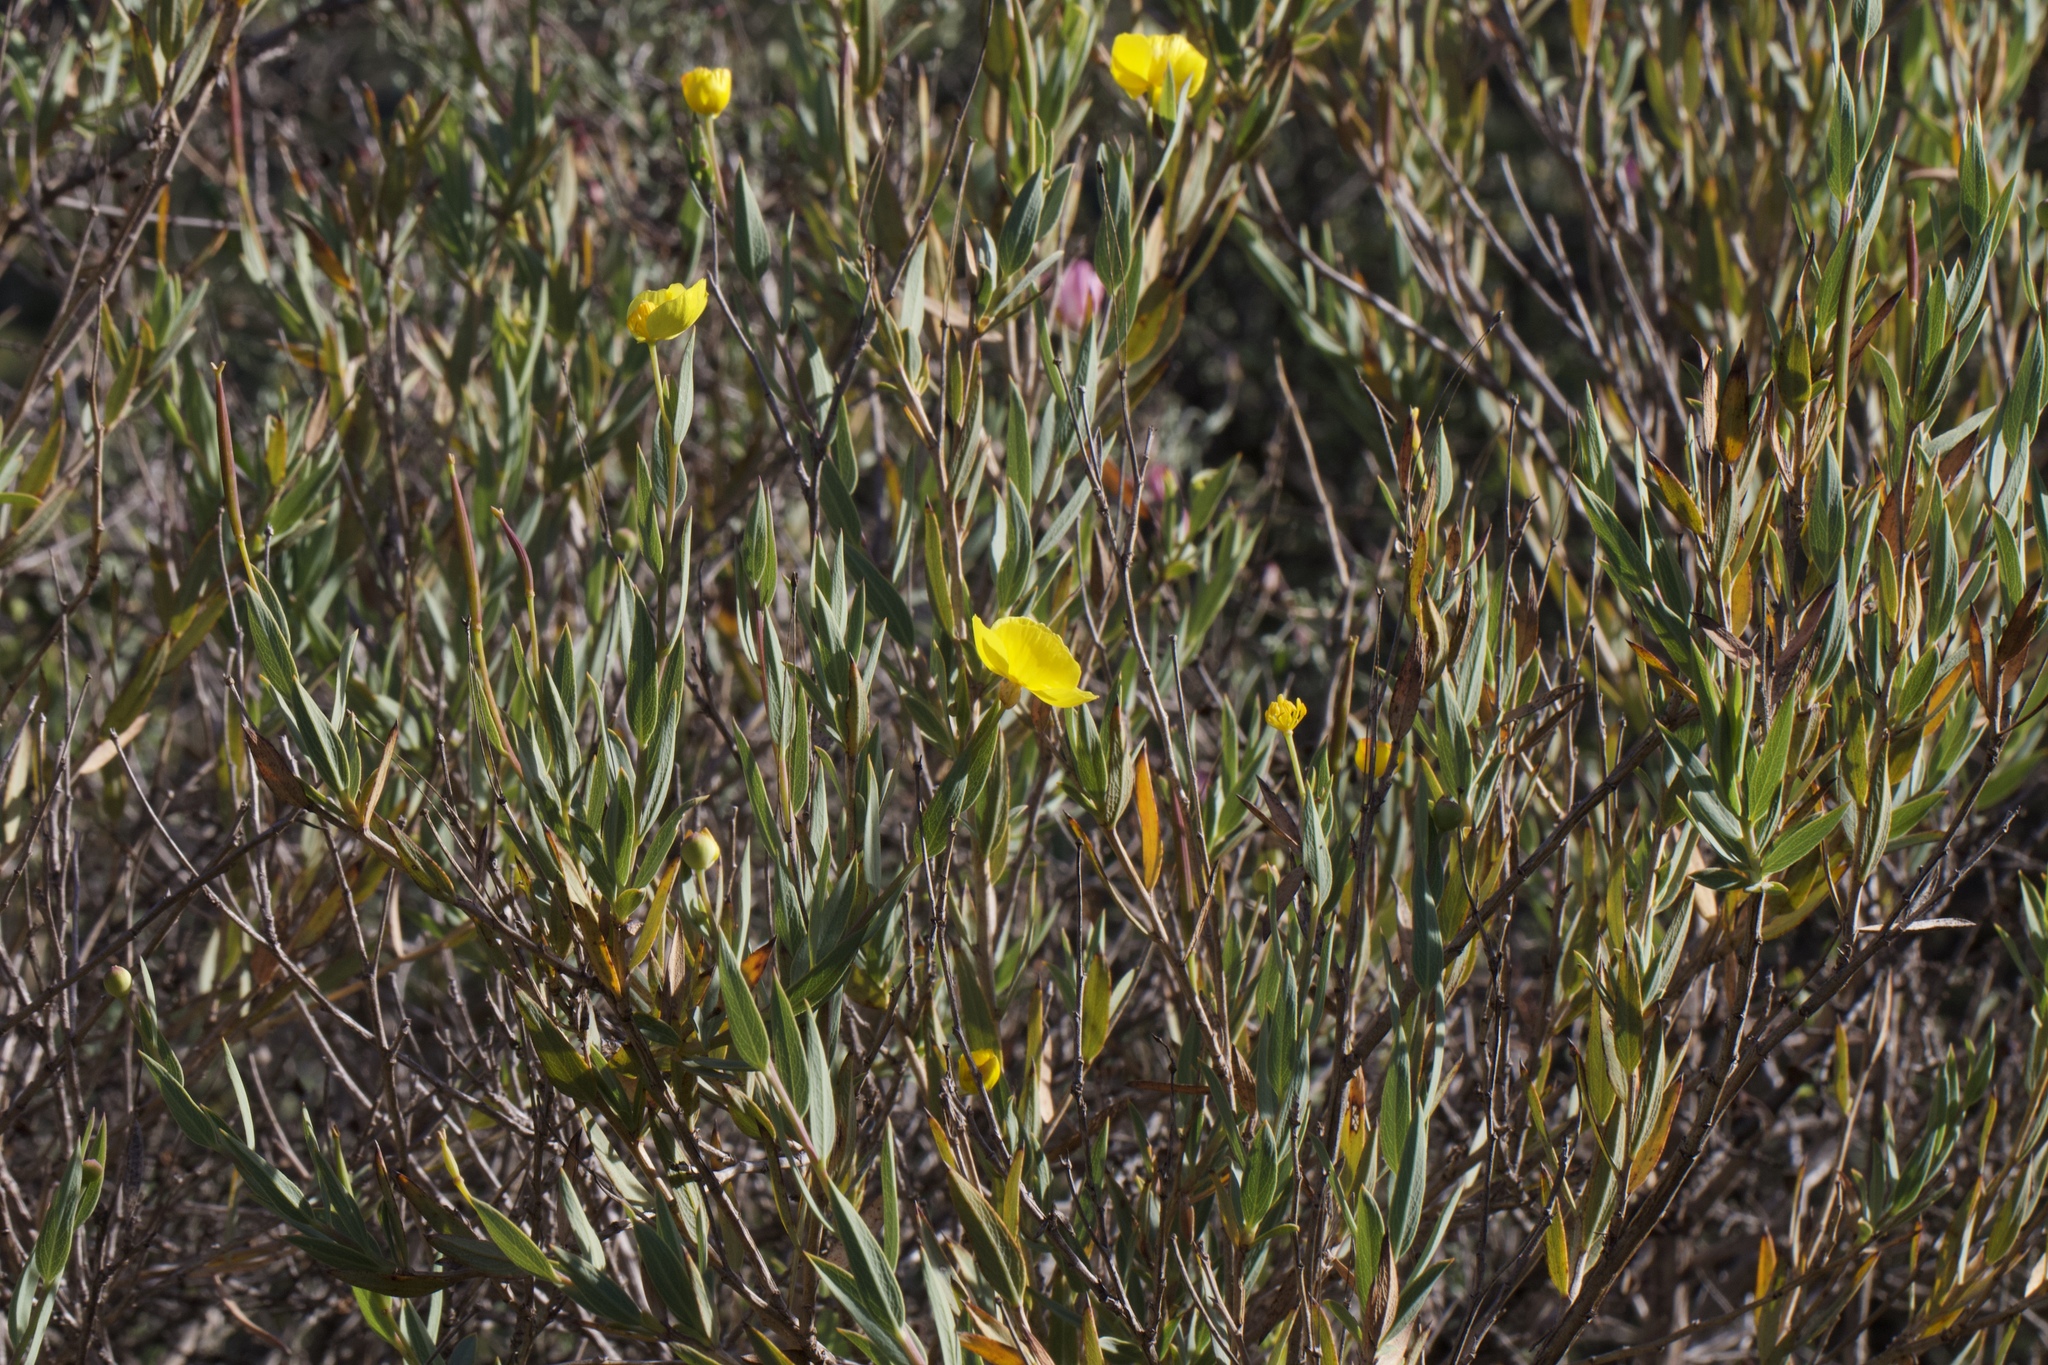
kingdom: Plantae
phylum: Tracheophyta
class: Magnoliopsida
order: Ranunculales
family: Papaveraceae
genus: Dendromecon
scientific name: Dendromecon rigida
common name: Tree poppy
